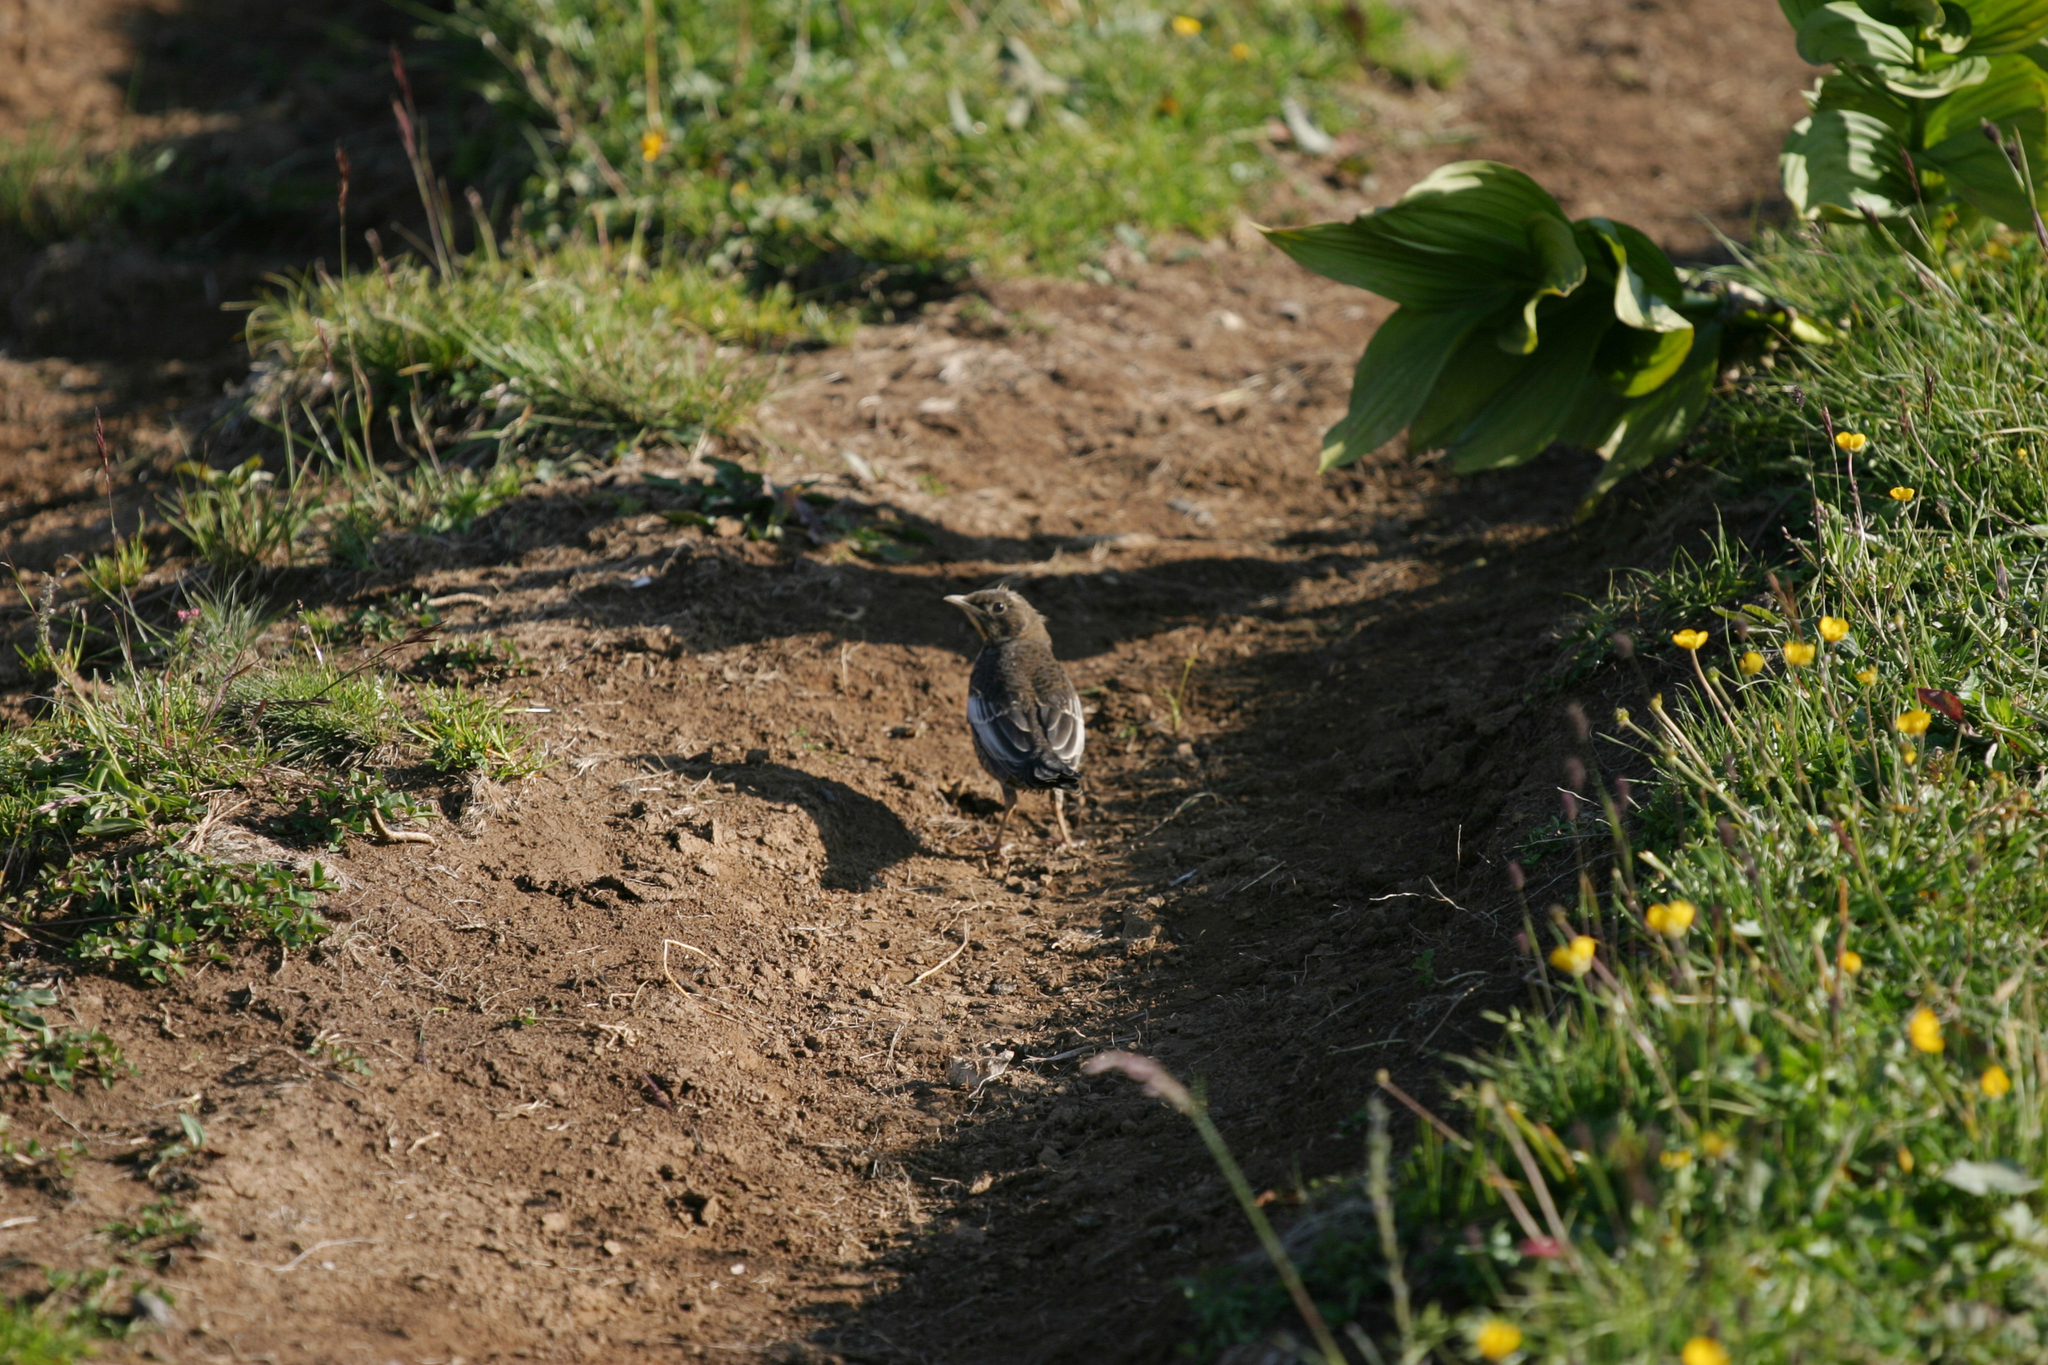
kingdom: Plantae
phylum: Tracheophyta
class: Liliopsida
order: Liliales
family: Melanthiaceae
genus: Veratrum
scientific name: Veratrum lobelianum
